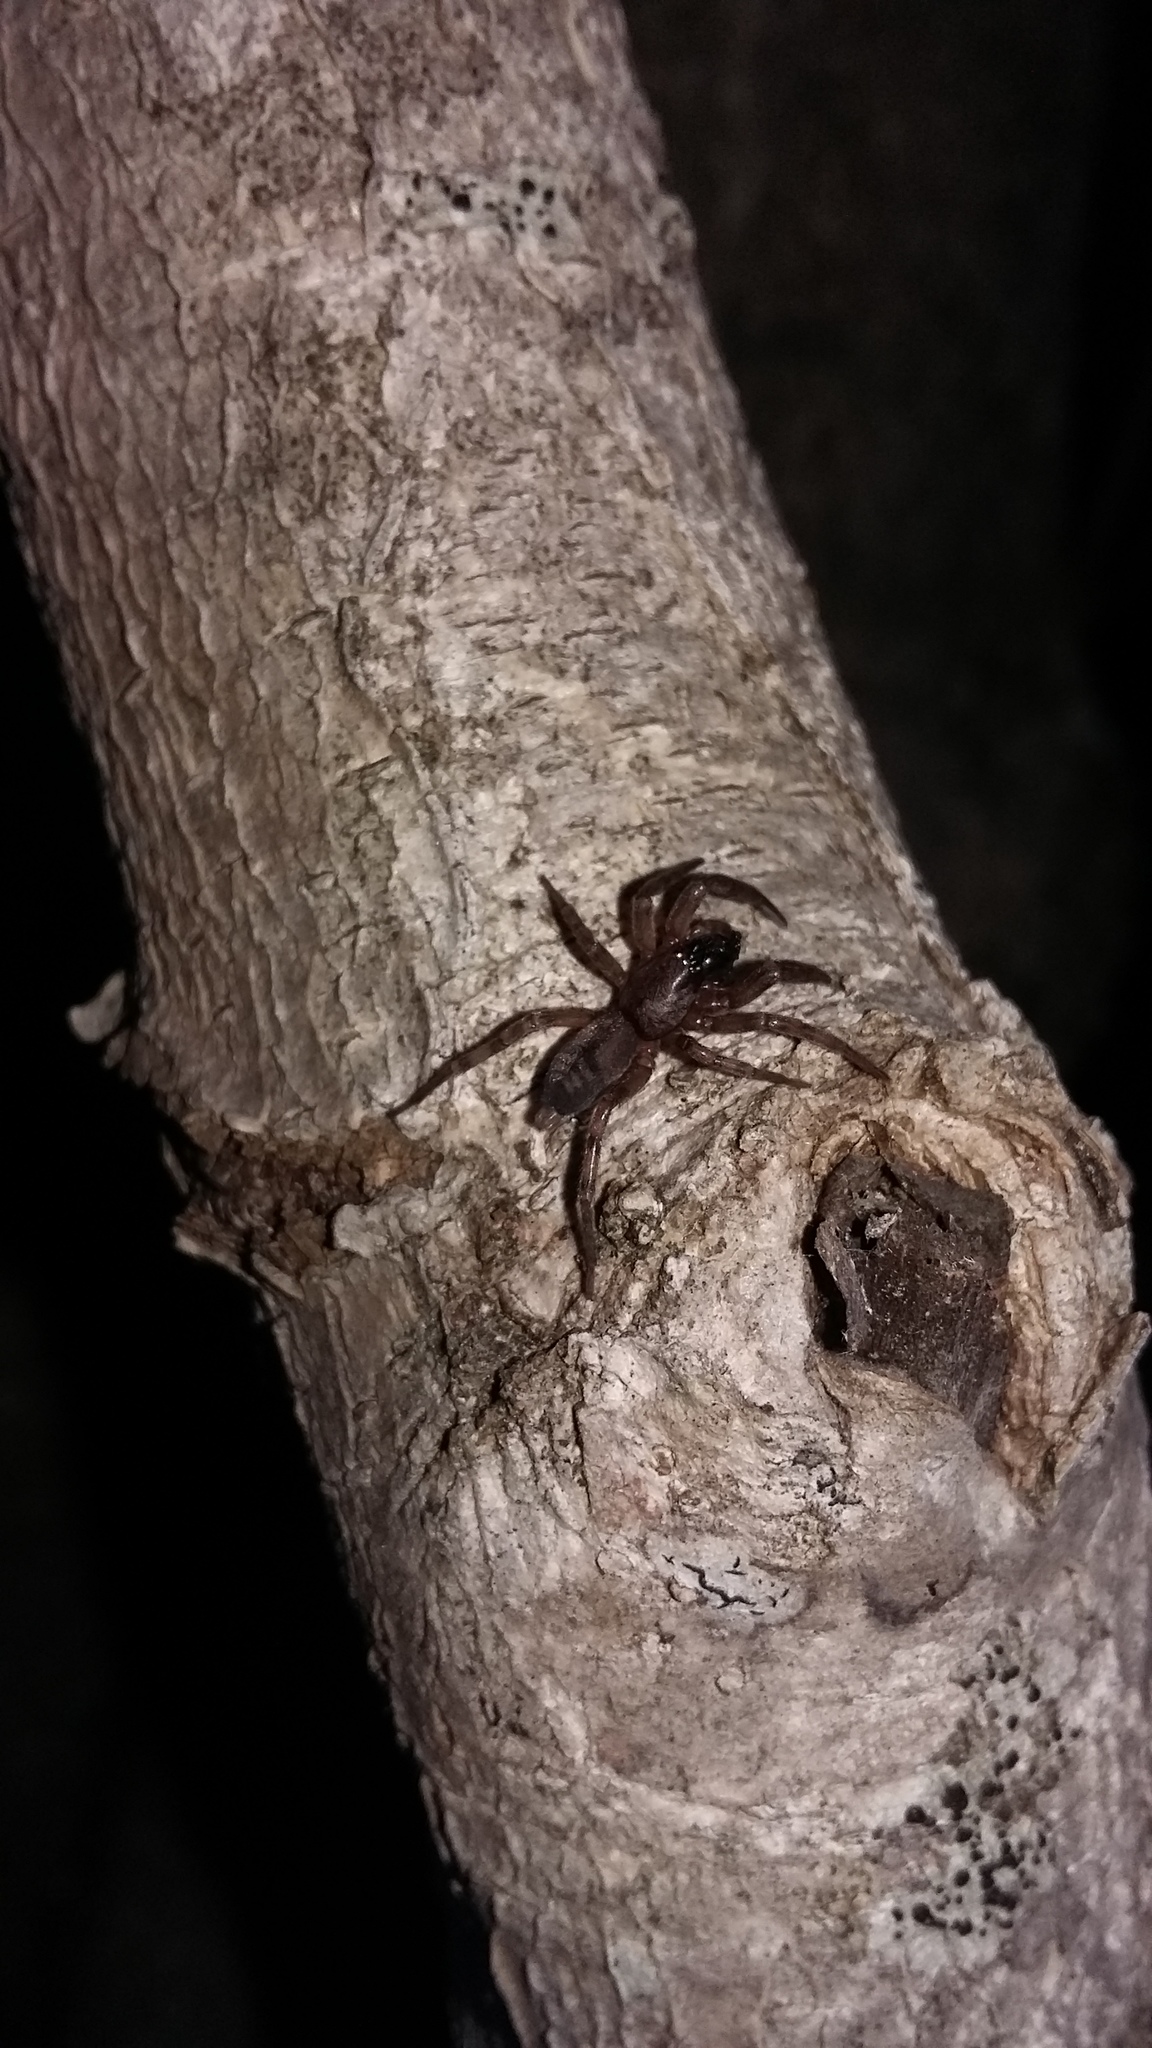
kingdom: Animalia
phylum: Arthropoda
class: Arachnida
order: Araneae
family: Gnaphosidae
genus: Intruda
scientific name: Intruda signata
